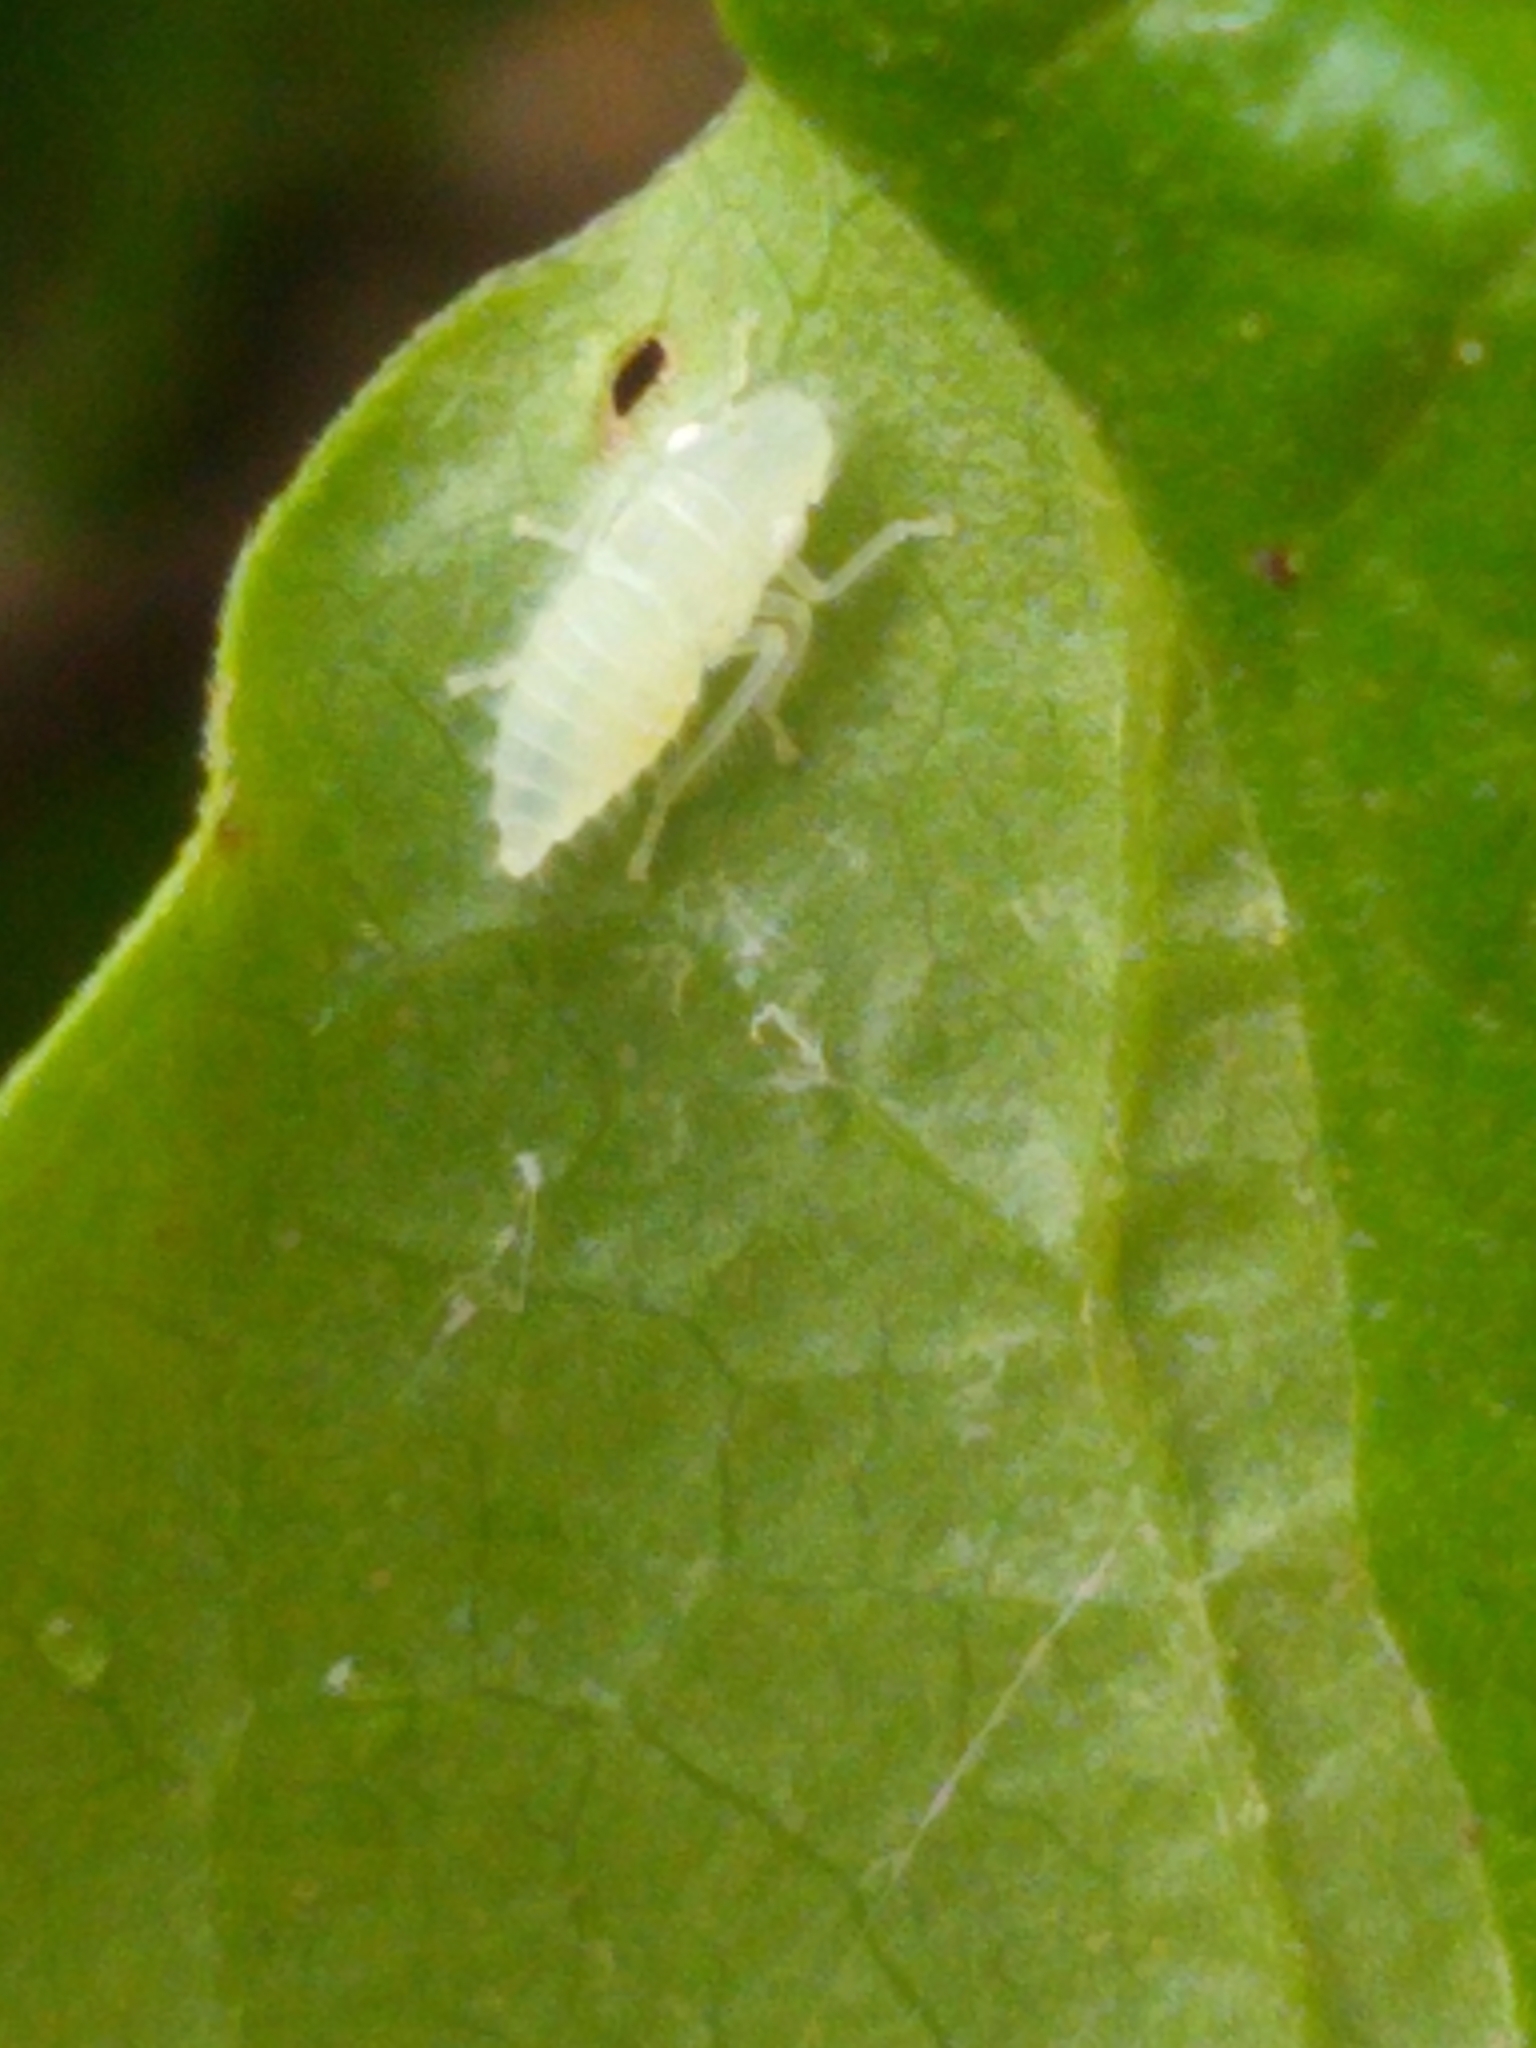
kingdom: Animalia
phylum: Arthropoda
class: Insecta
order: Hemiptera
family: Cicadellidae
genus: Paraulacizes
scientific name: Paraulacizes irrorata
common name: Speckled sharpshooter
